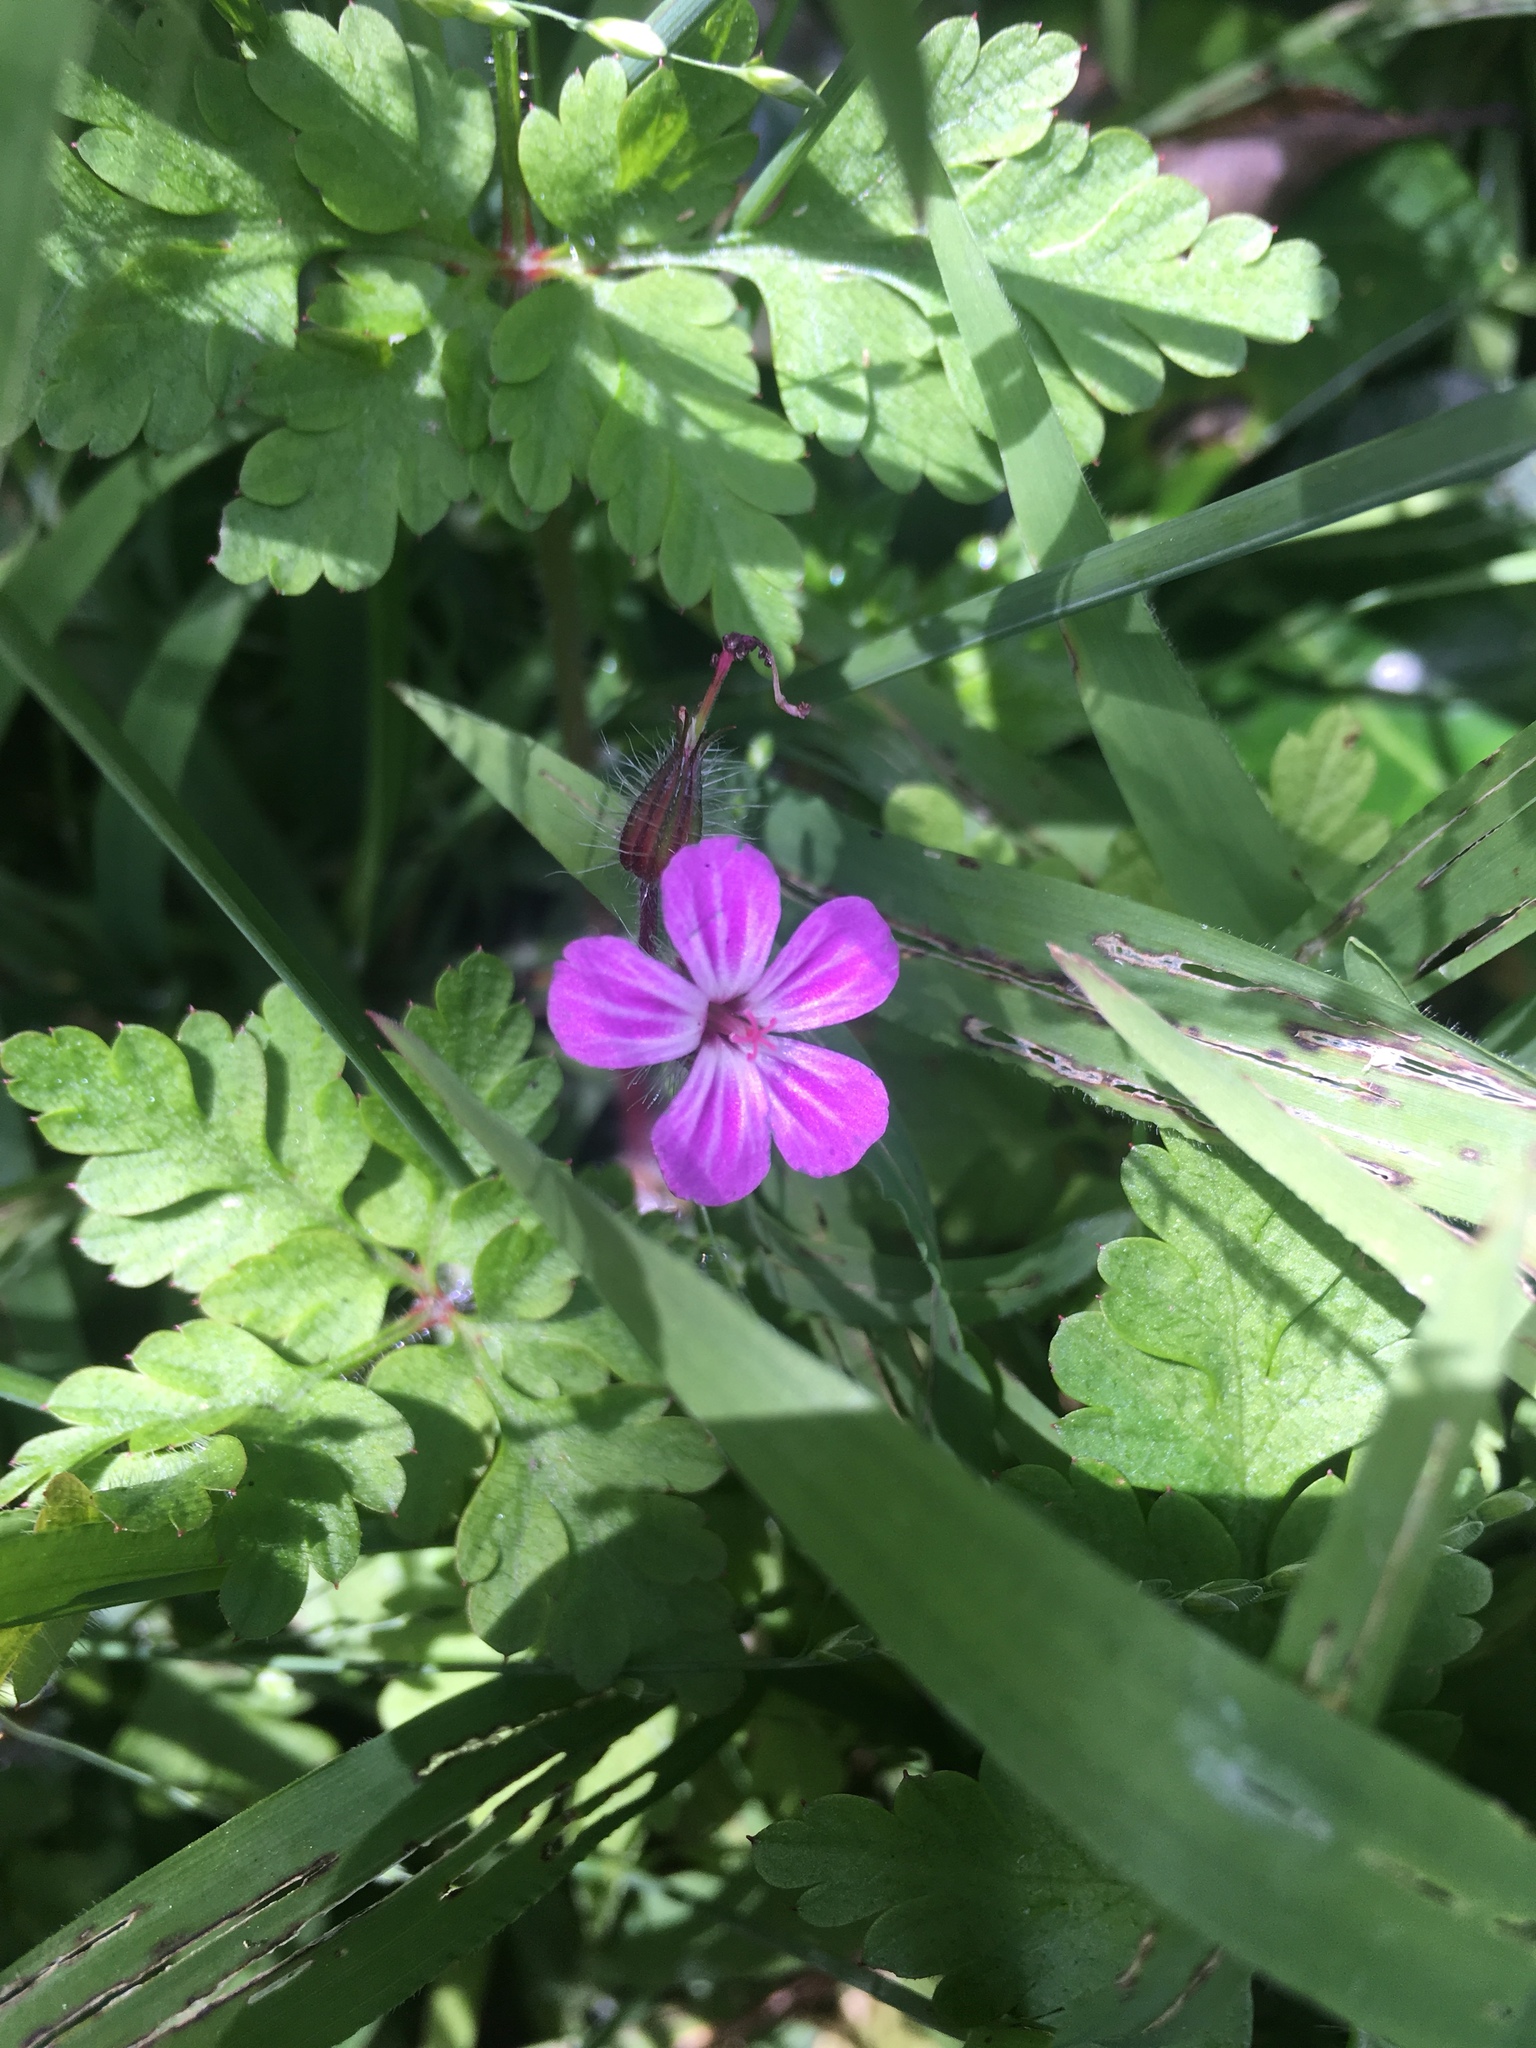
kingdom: Plantae
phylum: Tracheophyta
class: Magnoliopsida
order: Geraniales
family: Geraniaceae
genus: Geranium
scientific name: Geranium robertianum
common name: Herb-robert
